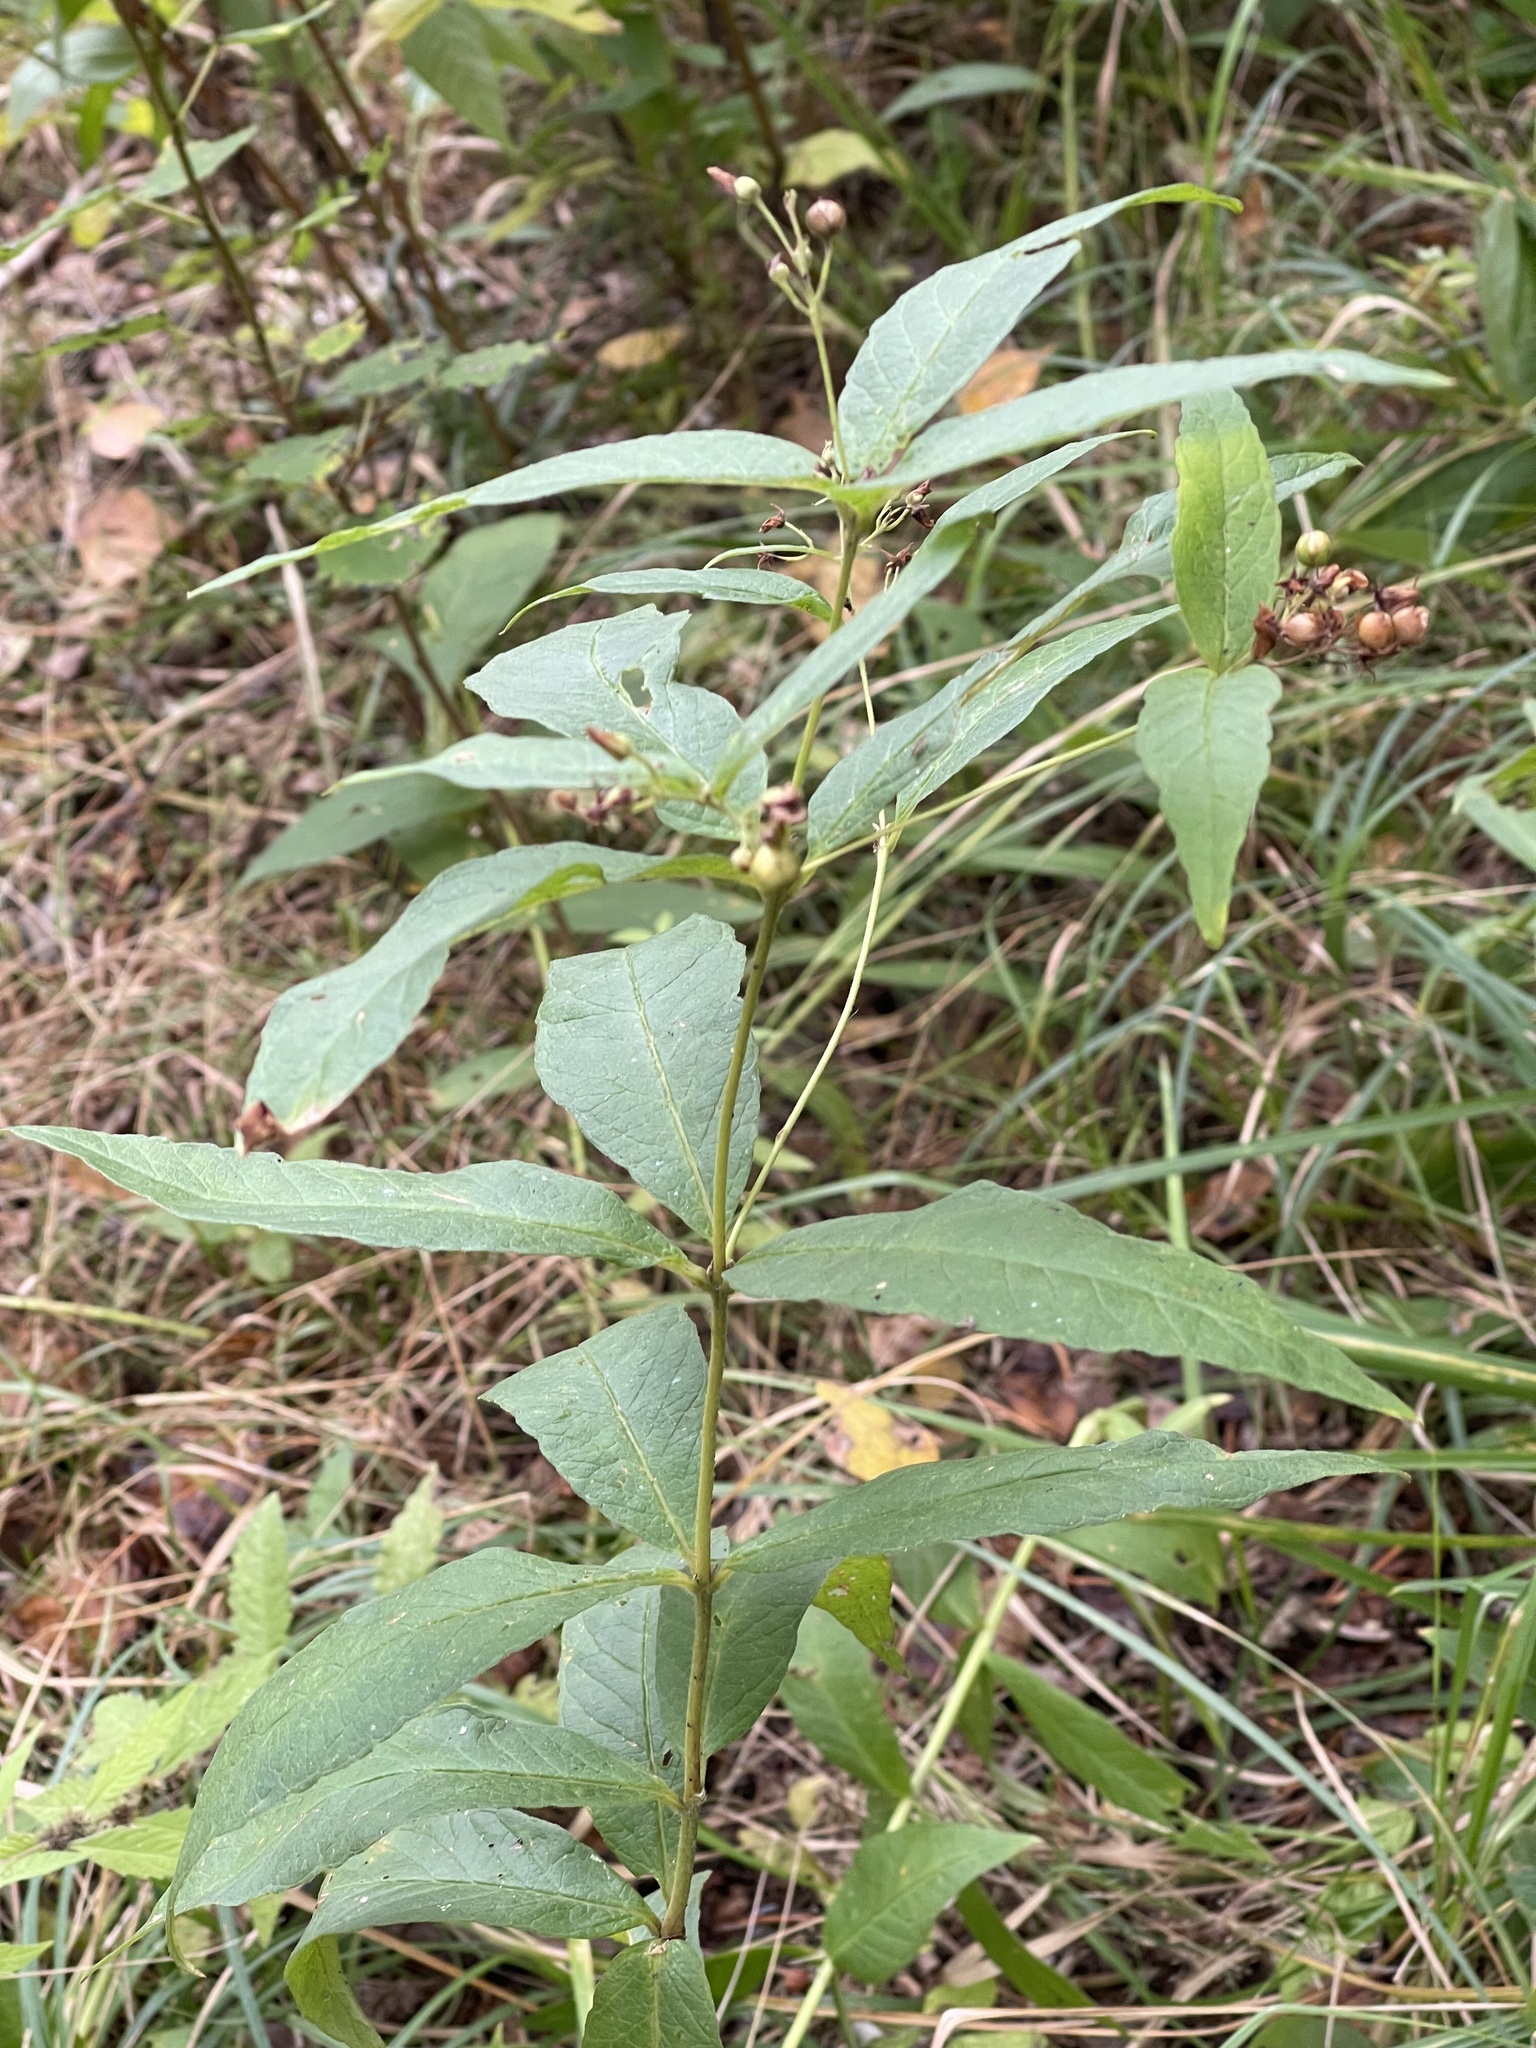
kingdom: Plantae
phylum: Tracheophyta
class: Magnoliopsida
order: Ericales
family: Primulaceae
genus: Lysimachia
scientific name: Lysimachia vulgaris
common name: Yellow loosestrife
